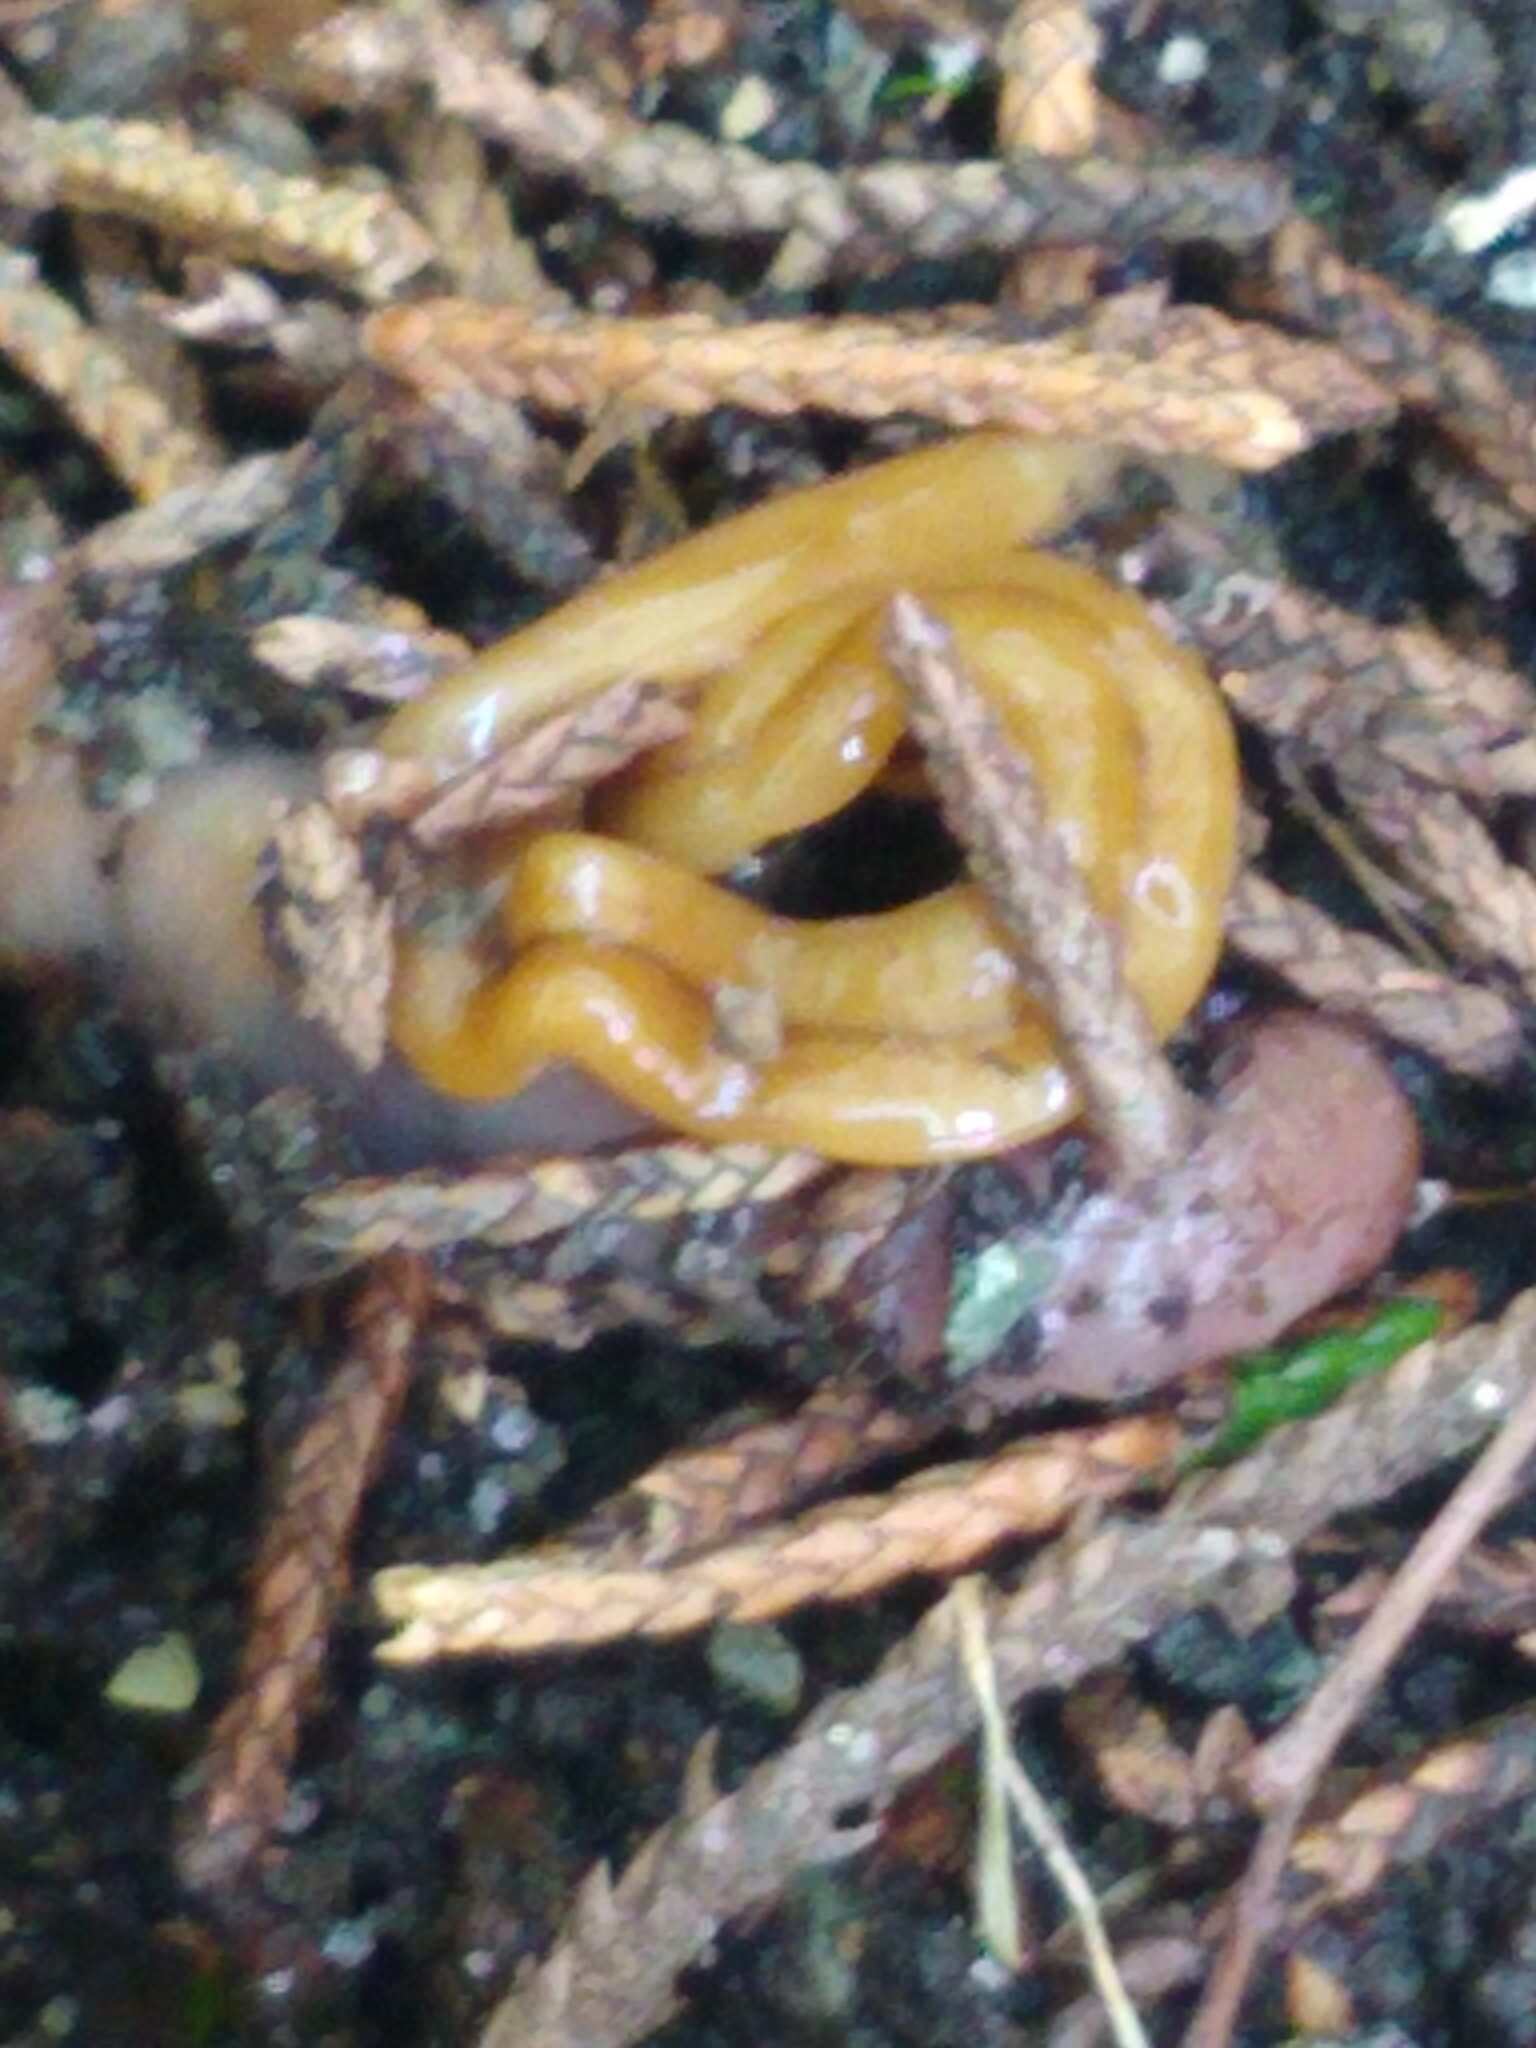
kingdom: Animalia
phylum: Platyhelminthes
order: Tricladida
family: Geoplanidae
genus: Bipalium
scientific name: Bipalium adventitium
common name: Land planarian
